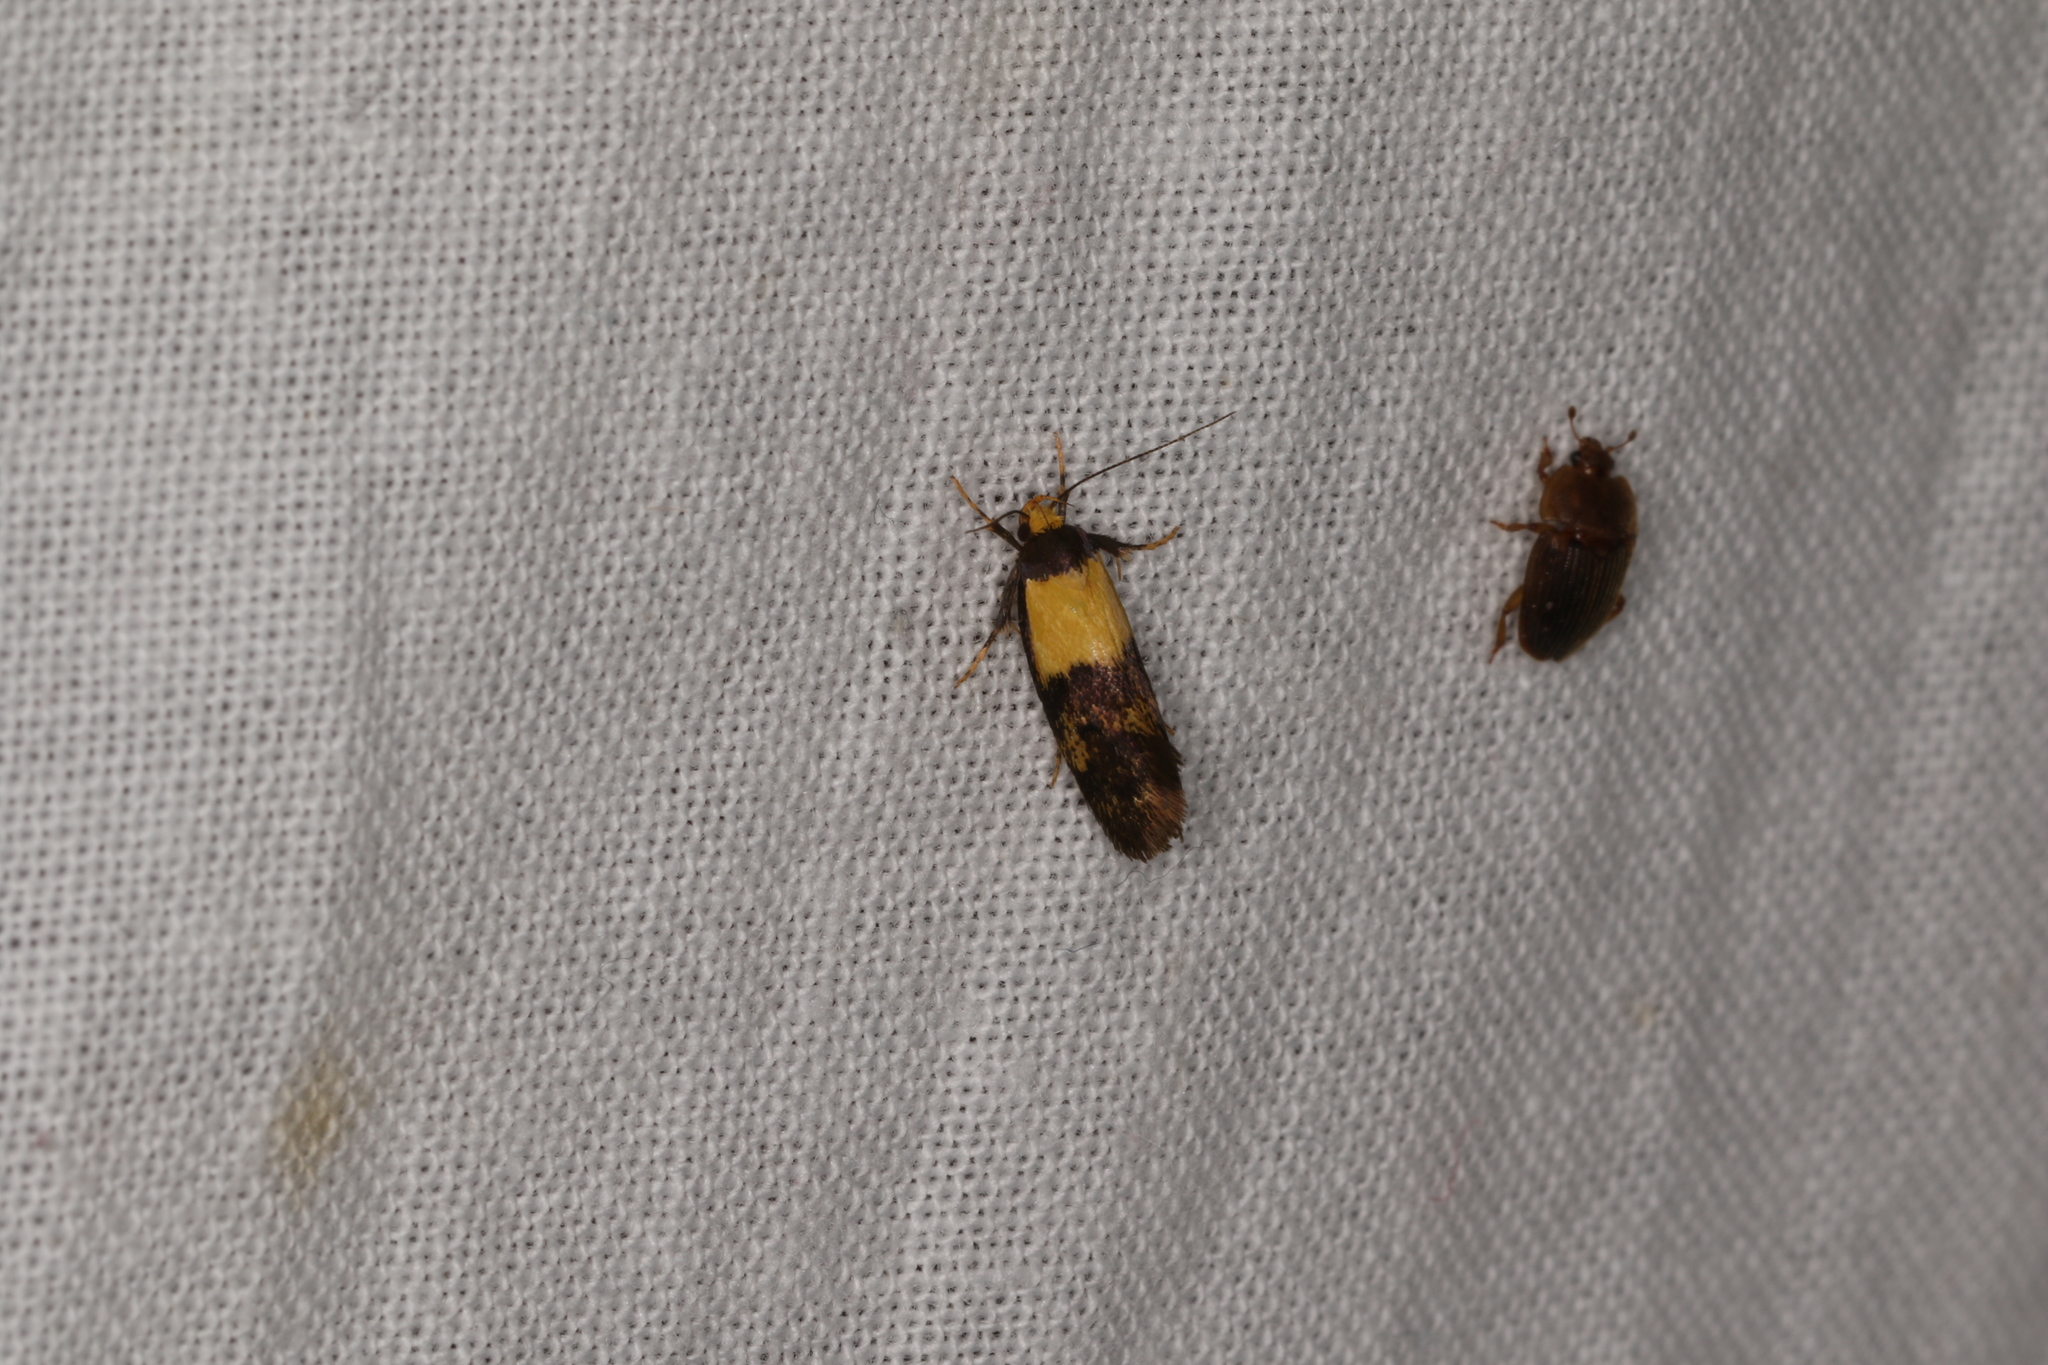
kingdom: Animalia
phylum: Arthropoda
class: Insecta
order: Lepidoptera
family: Oecophoridae
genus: Enchronista
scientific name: Enchronista proximella
